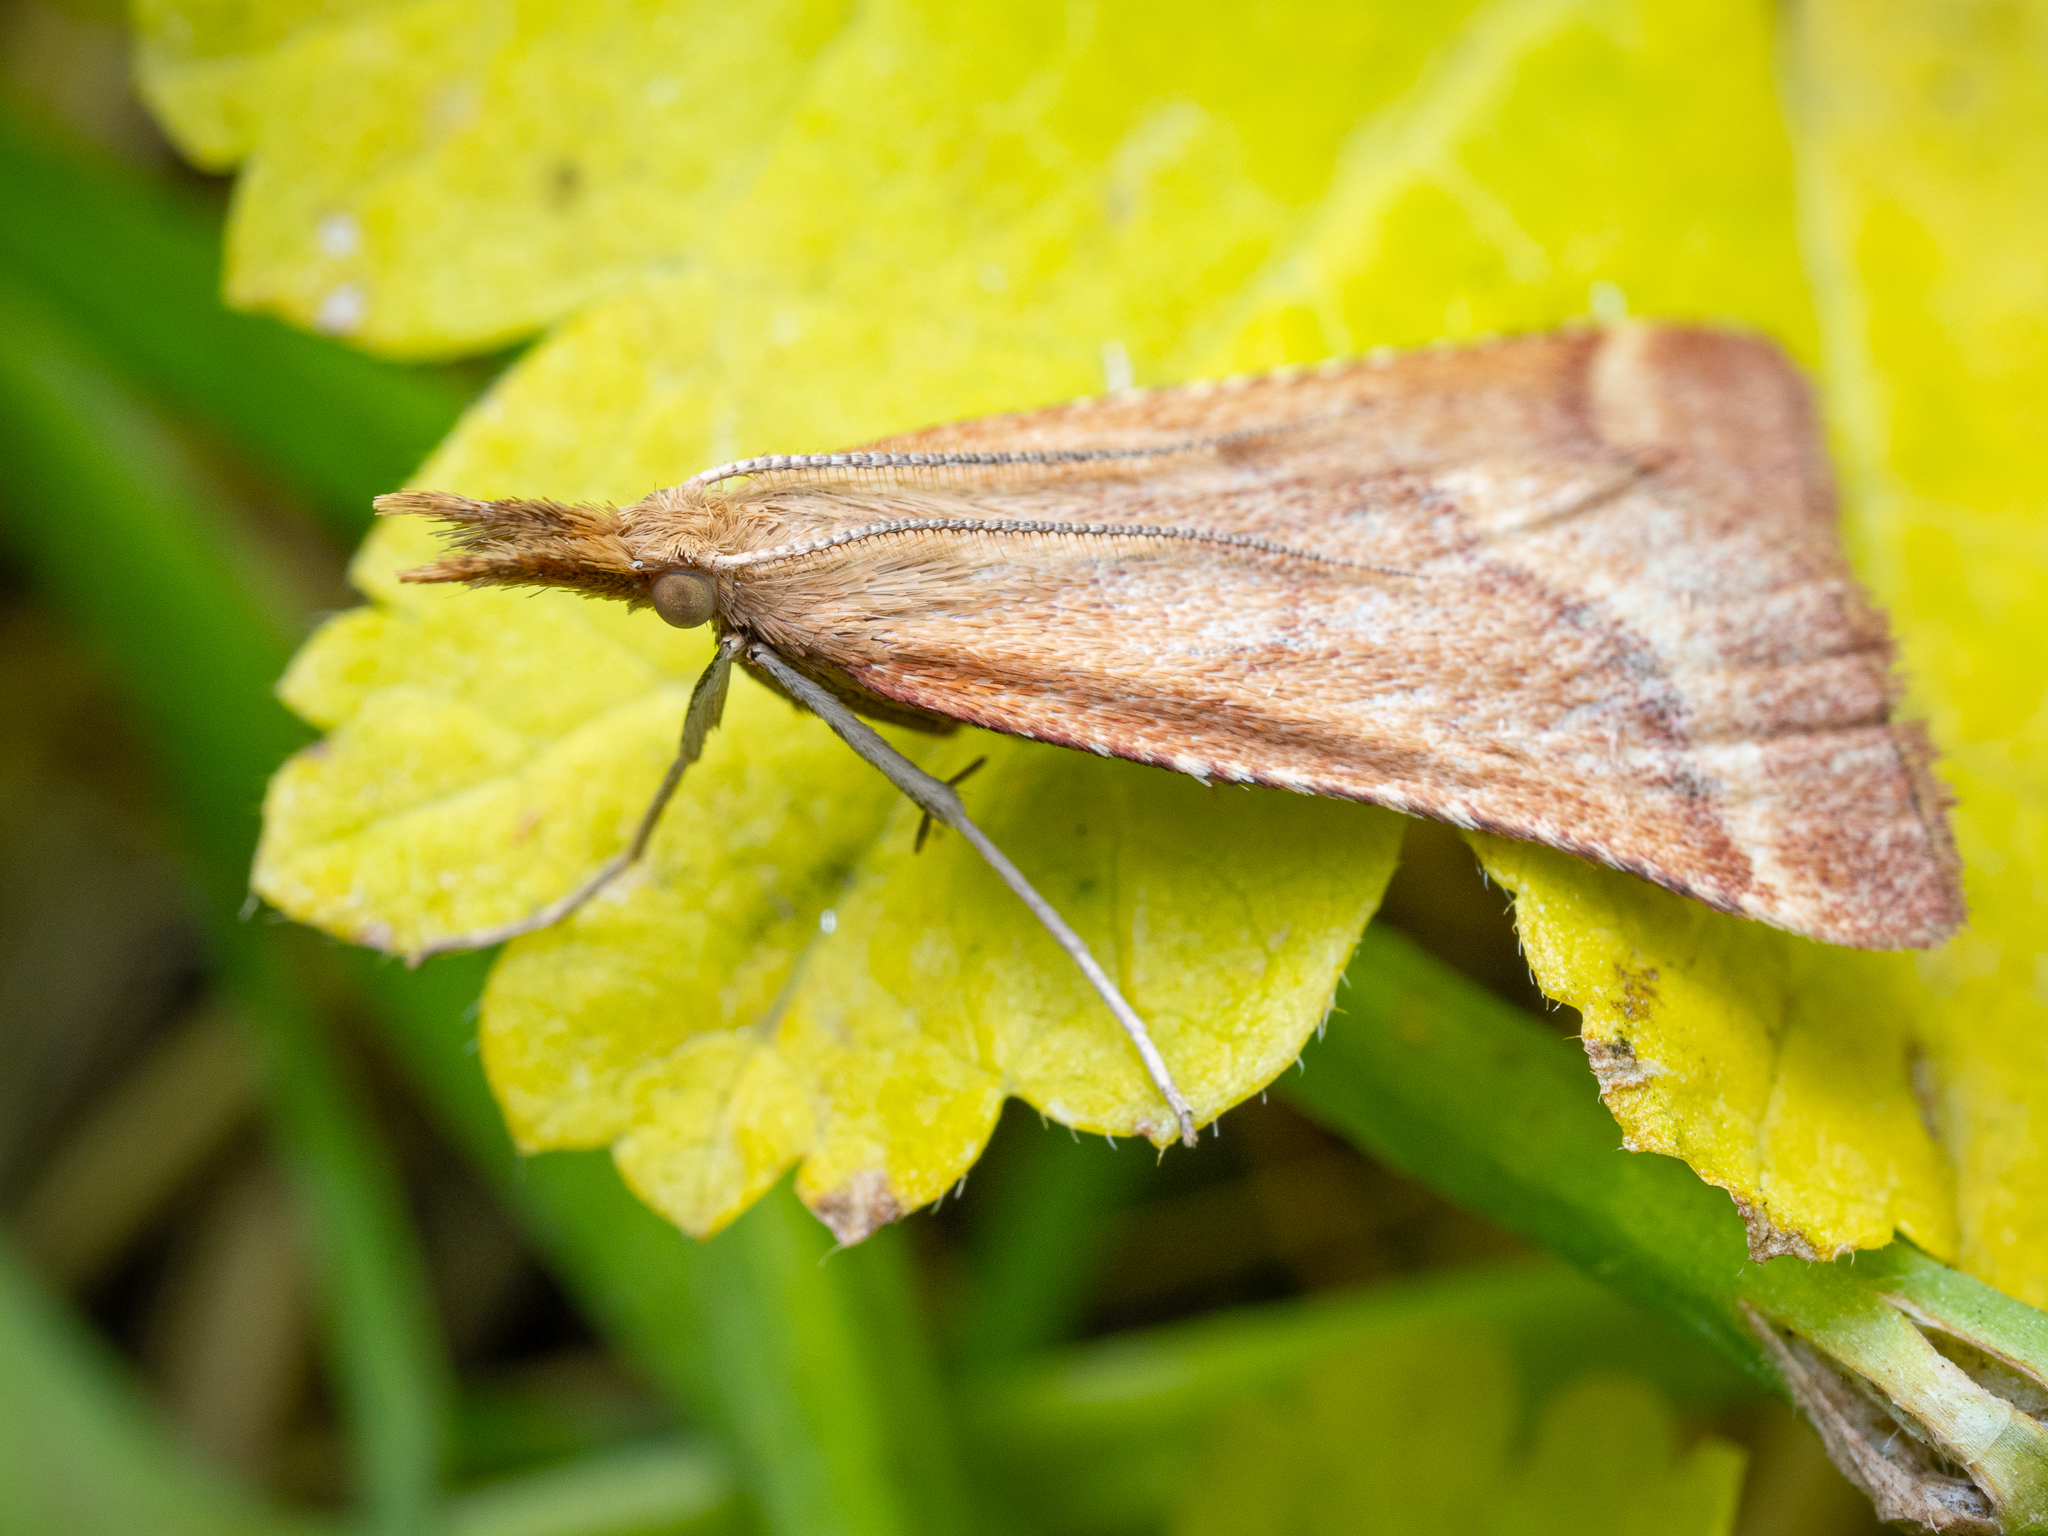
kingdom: Animalia
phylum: Arthropoda
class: Insecta
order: Lepidoptera
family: Pyralidae
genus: Synaphe
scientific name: Synaphe punctalis
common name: Long-legged tabby
